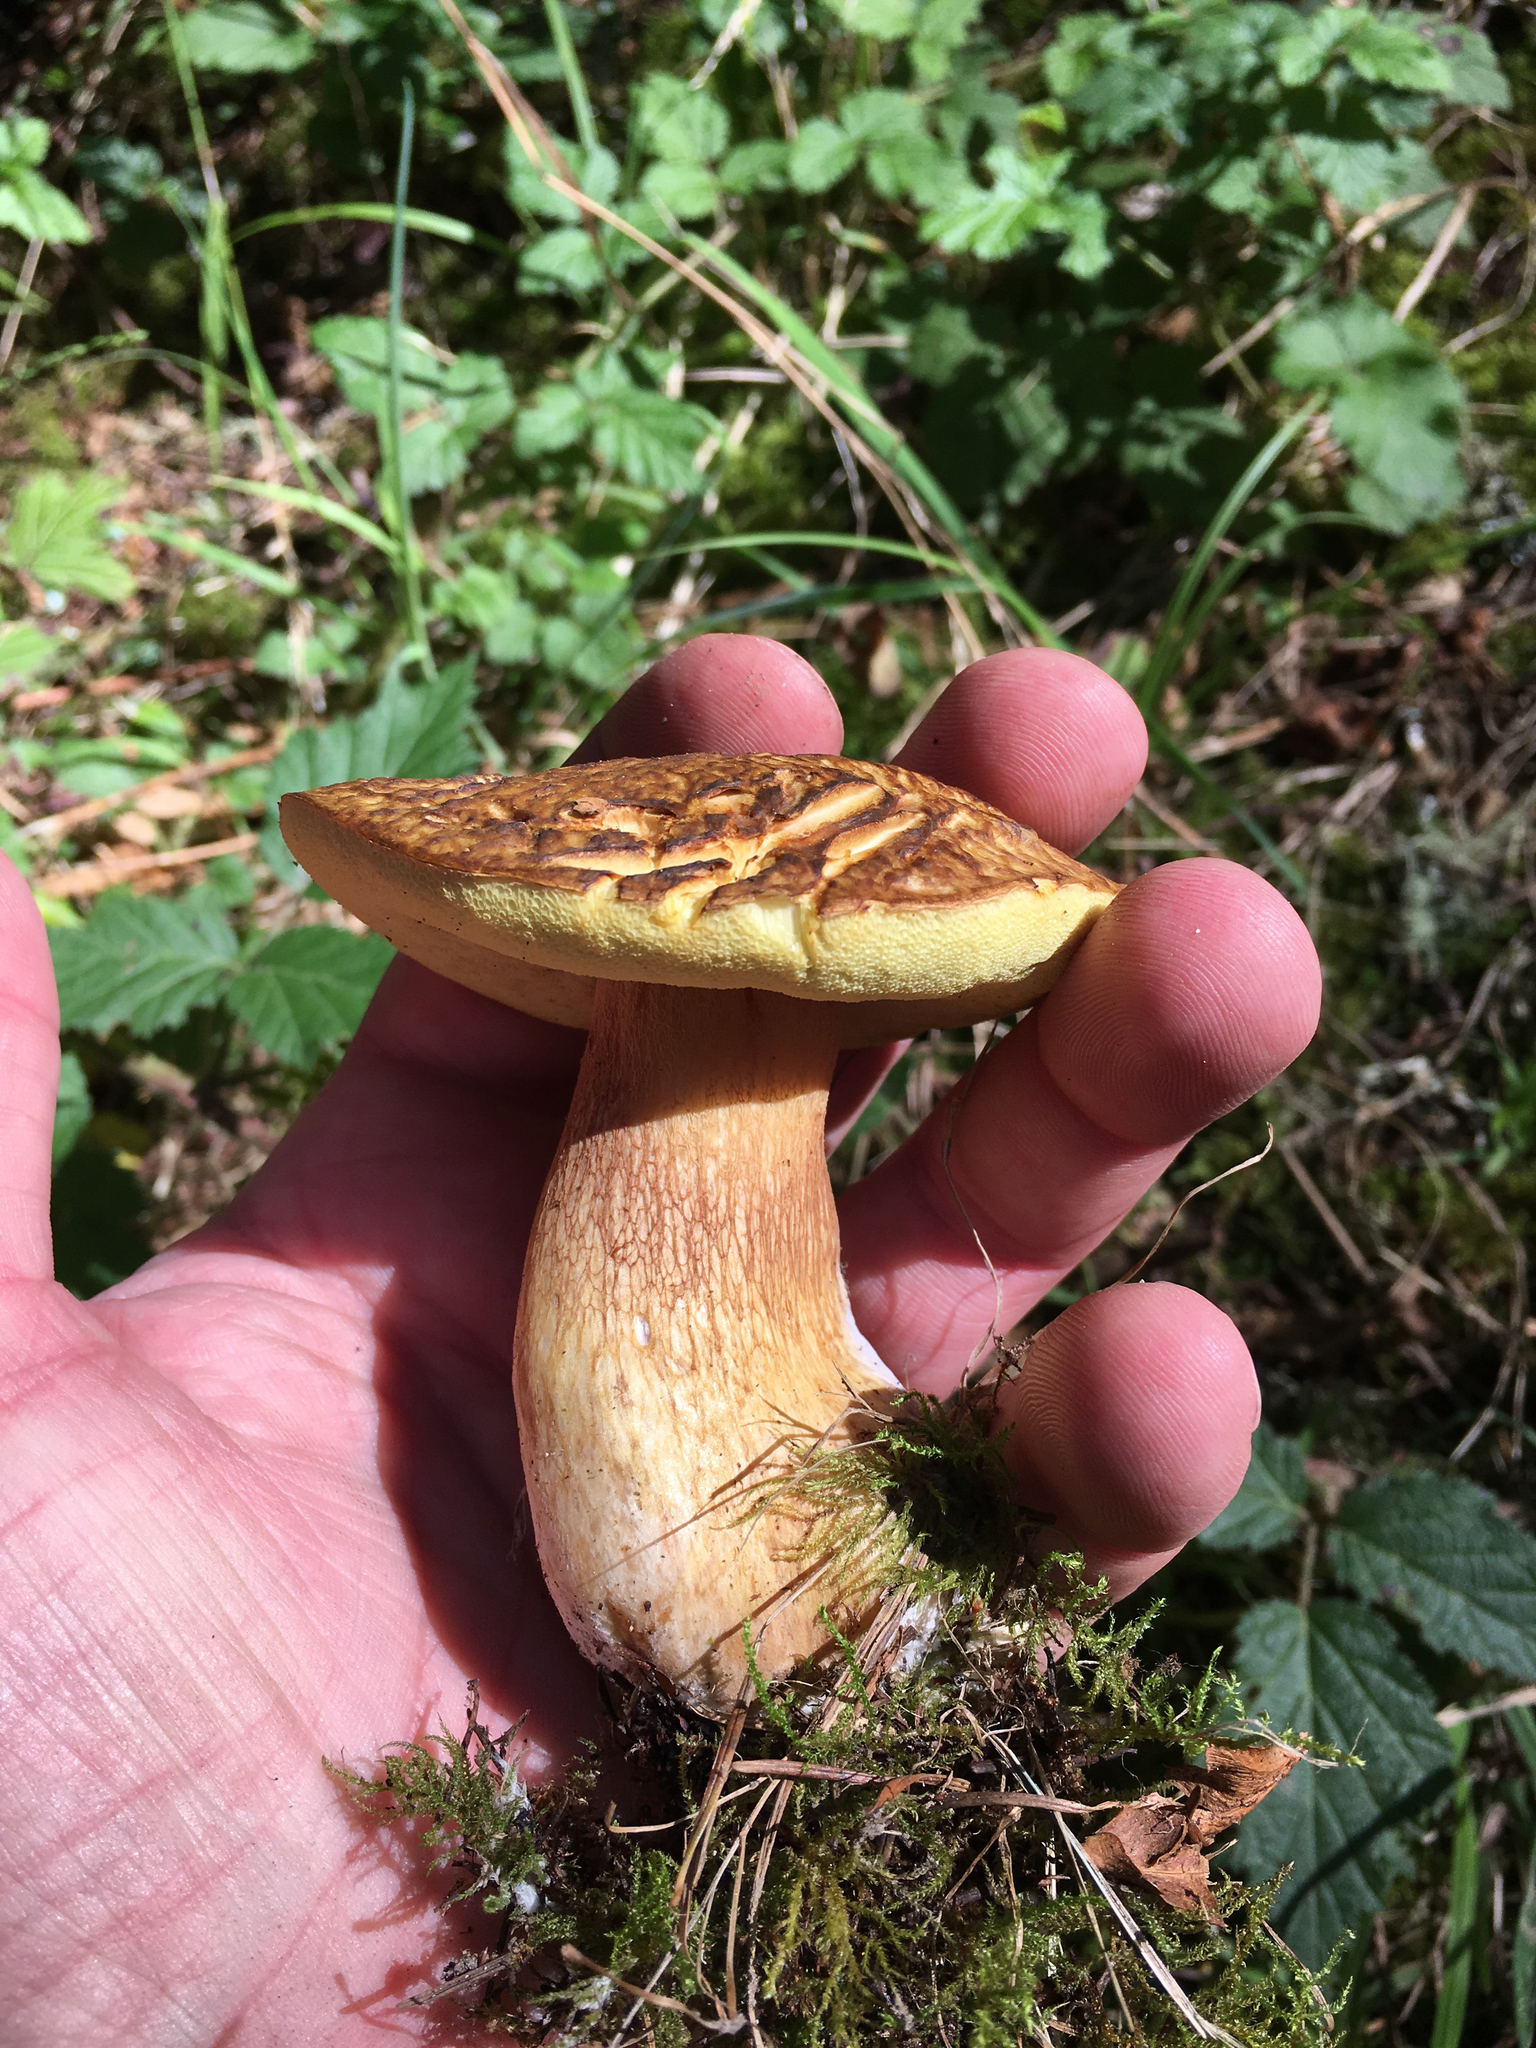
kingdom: Fungi
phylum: Basidiomycota
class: Agaricomycetes
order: Boletales
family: Boletaceae
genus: Boletus
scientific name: Boletus fibrillosus
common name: Fib king
